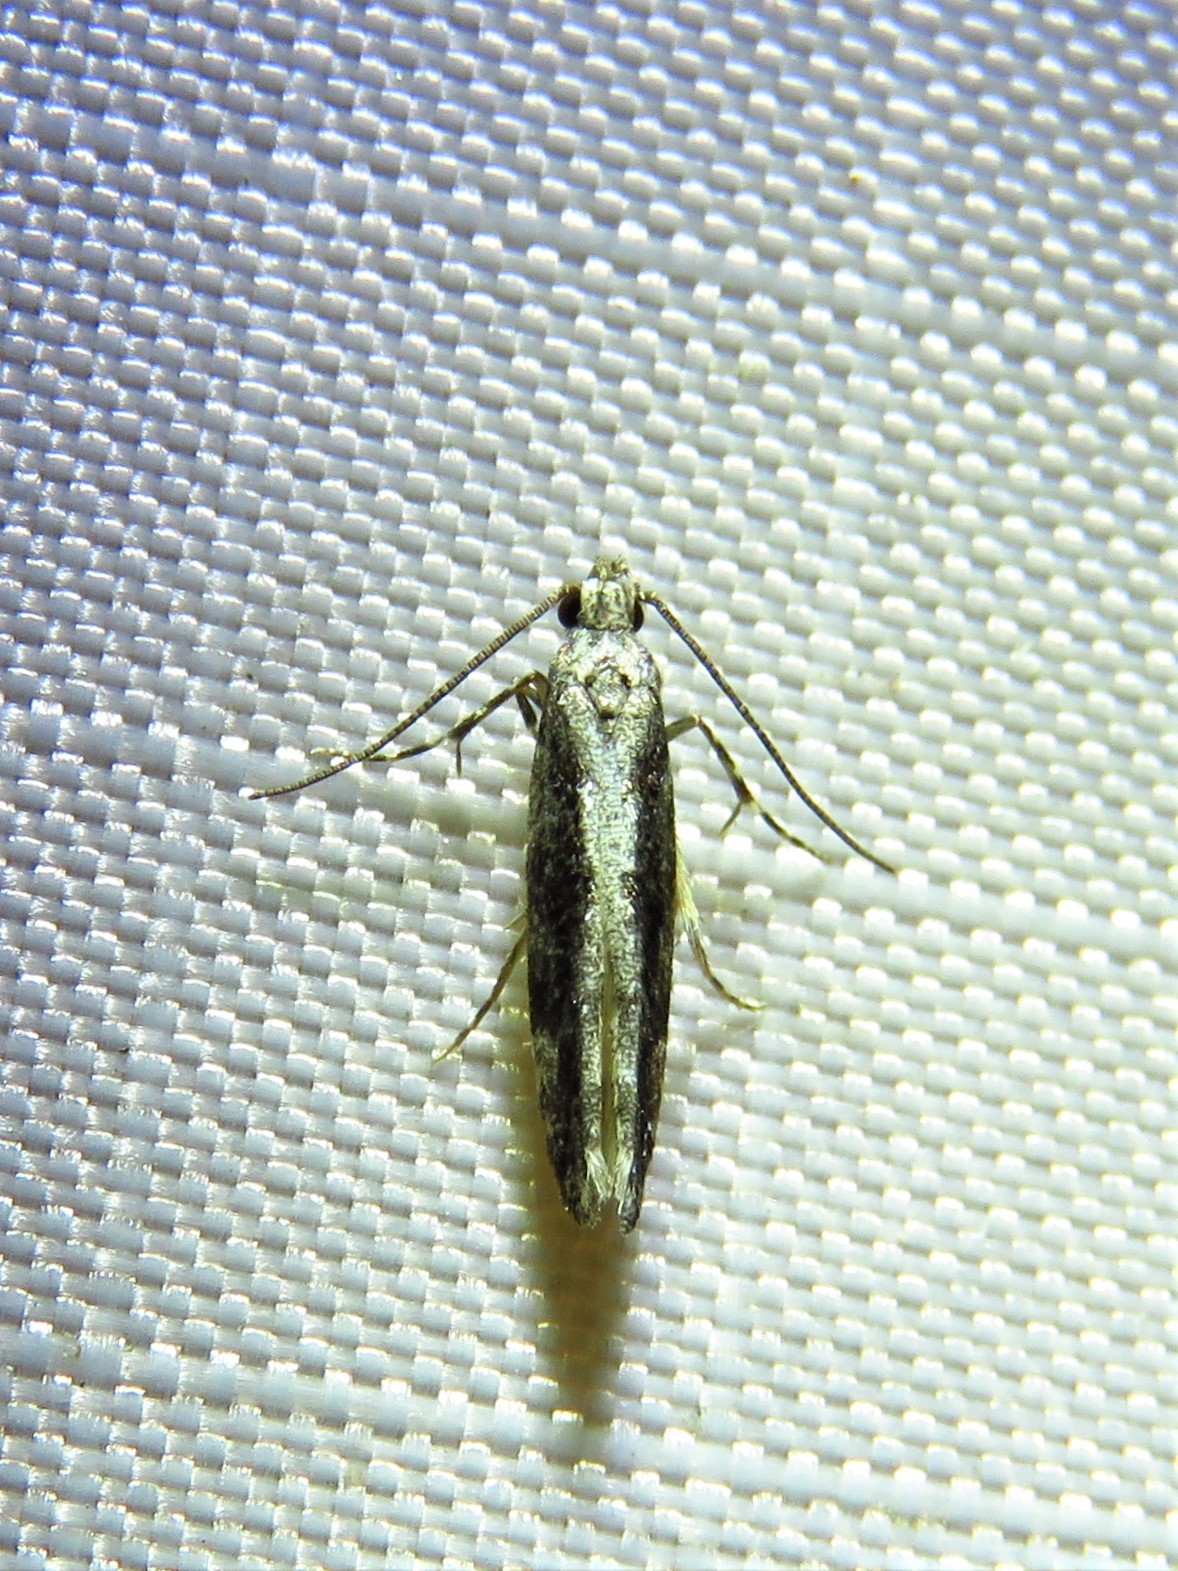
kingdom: Animalia
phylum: Arthropoda
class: Insecta
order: Lepidoptera
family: Gelechiidae
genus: Coleotechnites
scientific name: Coleotechnites florae
